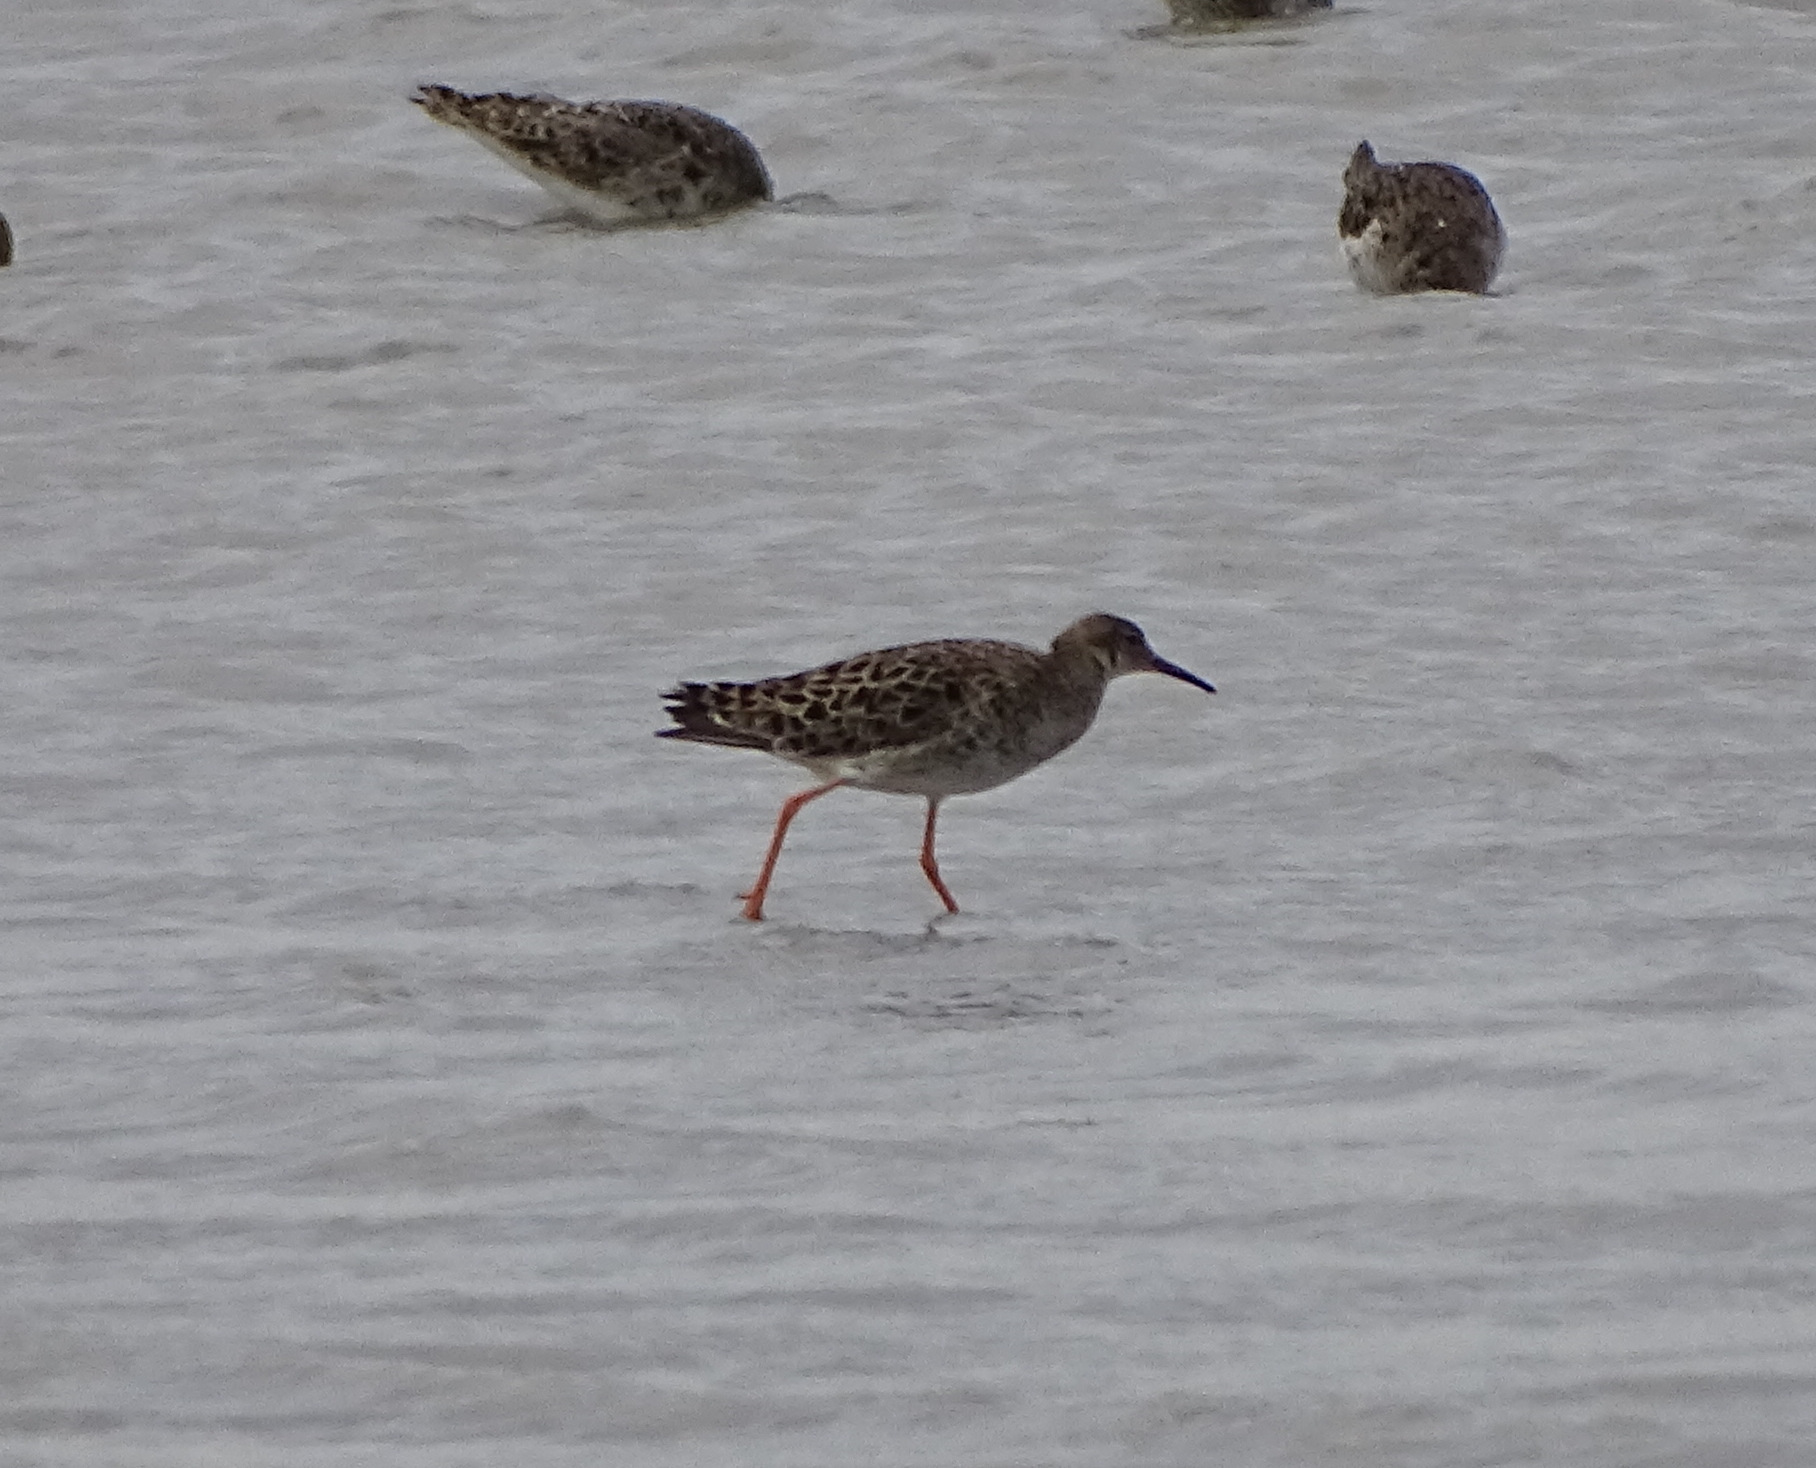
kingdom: Animalia
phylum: Chordata
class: Aves
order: Charadriiformes
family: Scolopacidae
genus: Calidris
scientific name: Calidris pugnax
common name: Ruff
